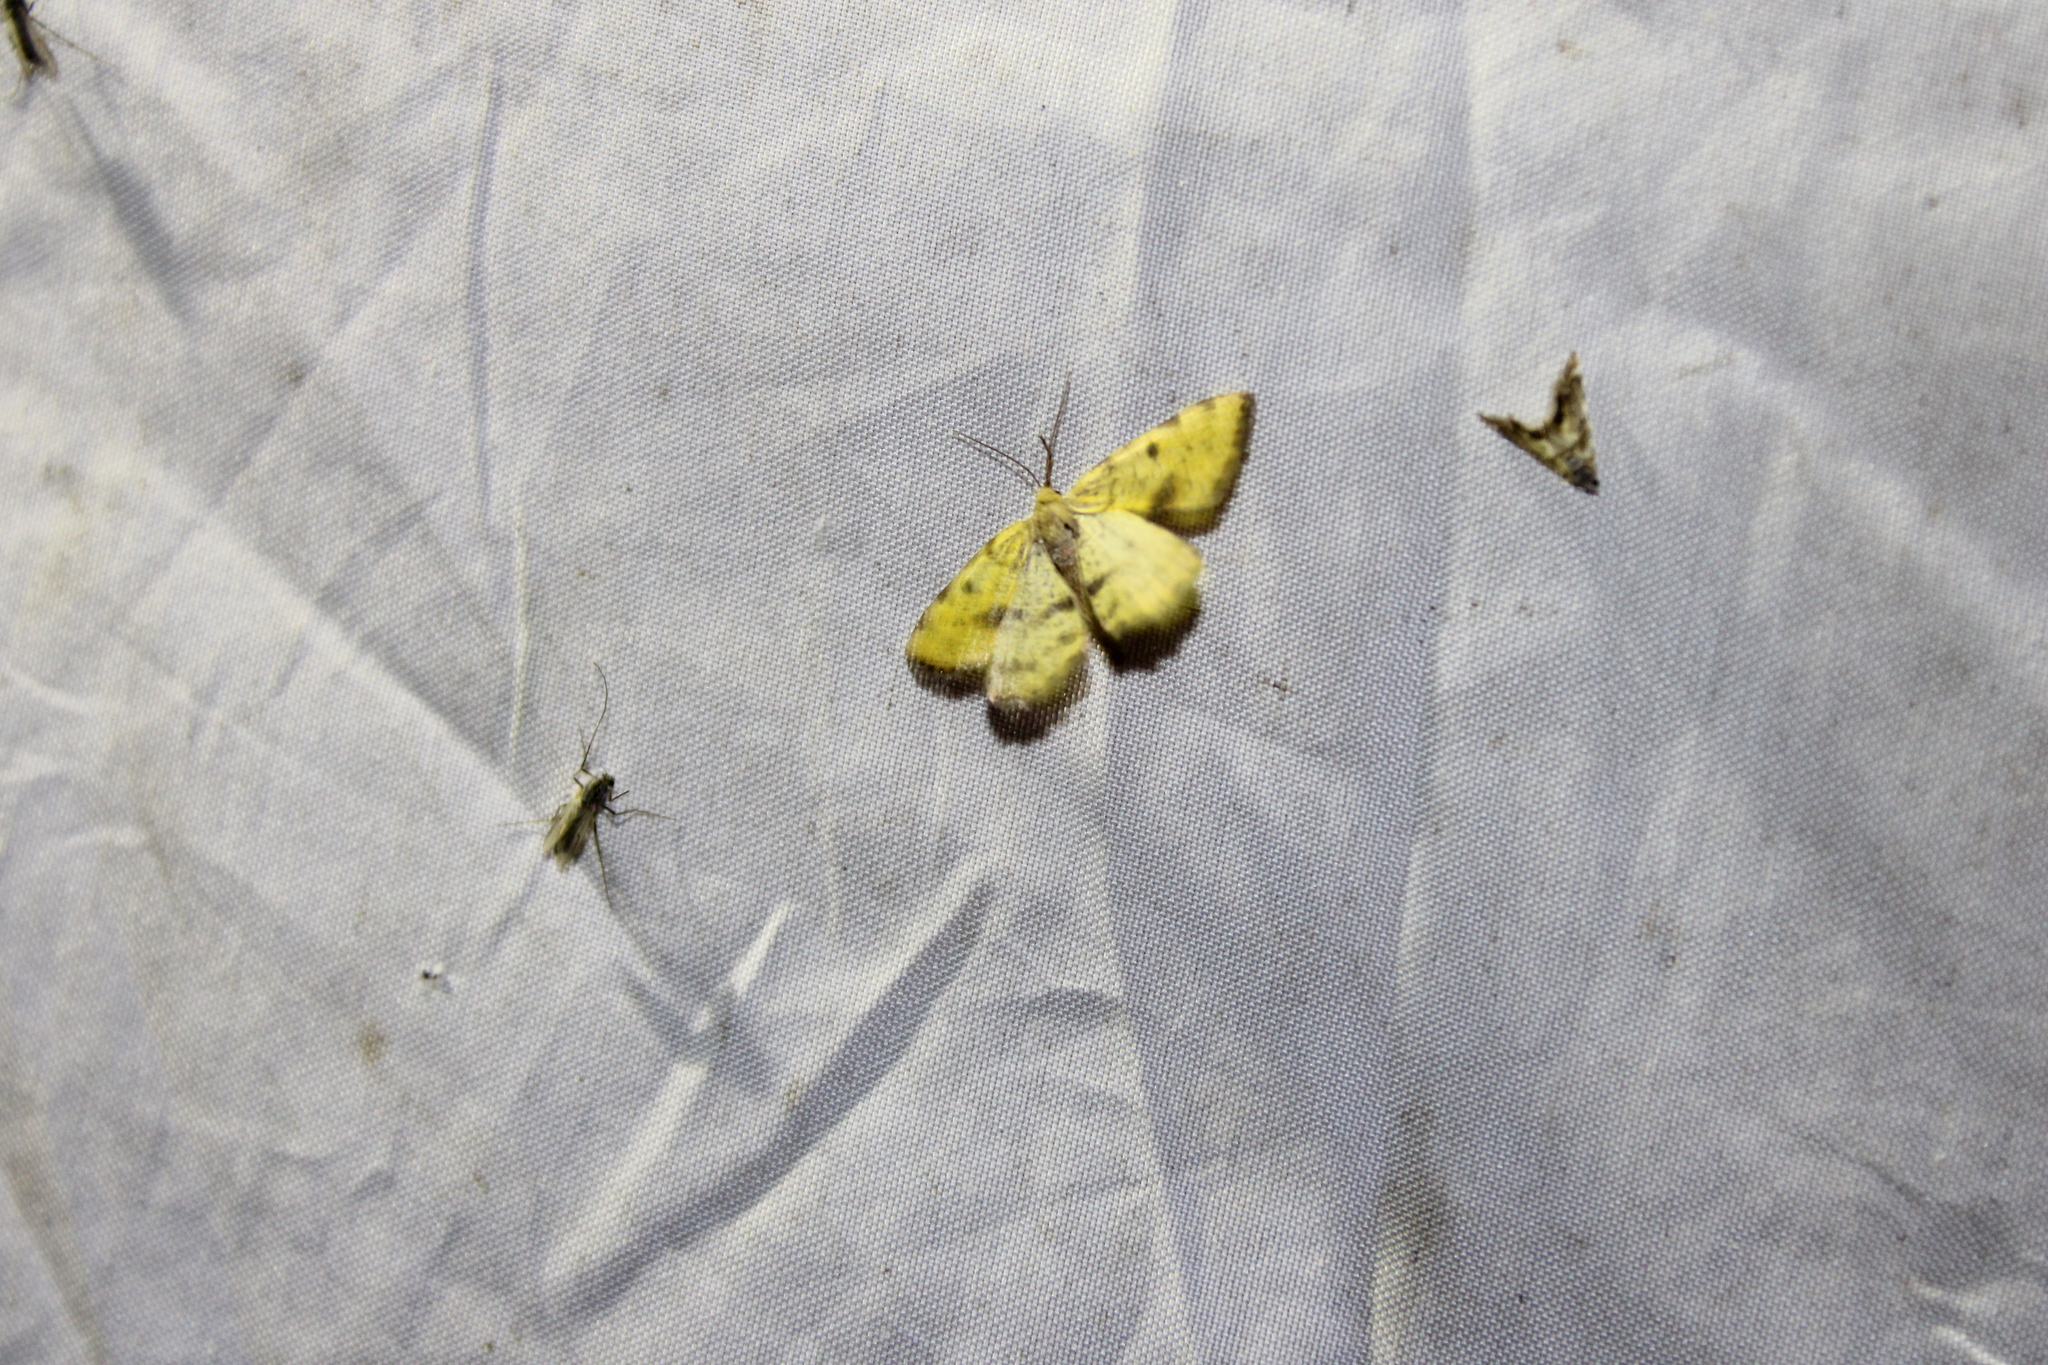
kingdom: Animalia
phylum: Arthropoda
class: Insecta
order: Lepidoptera
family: Geometridae
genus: Macaria
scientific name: Macaria sulphurea
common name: Sulphur angle
